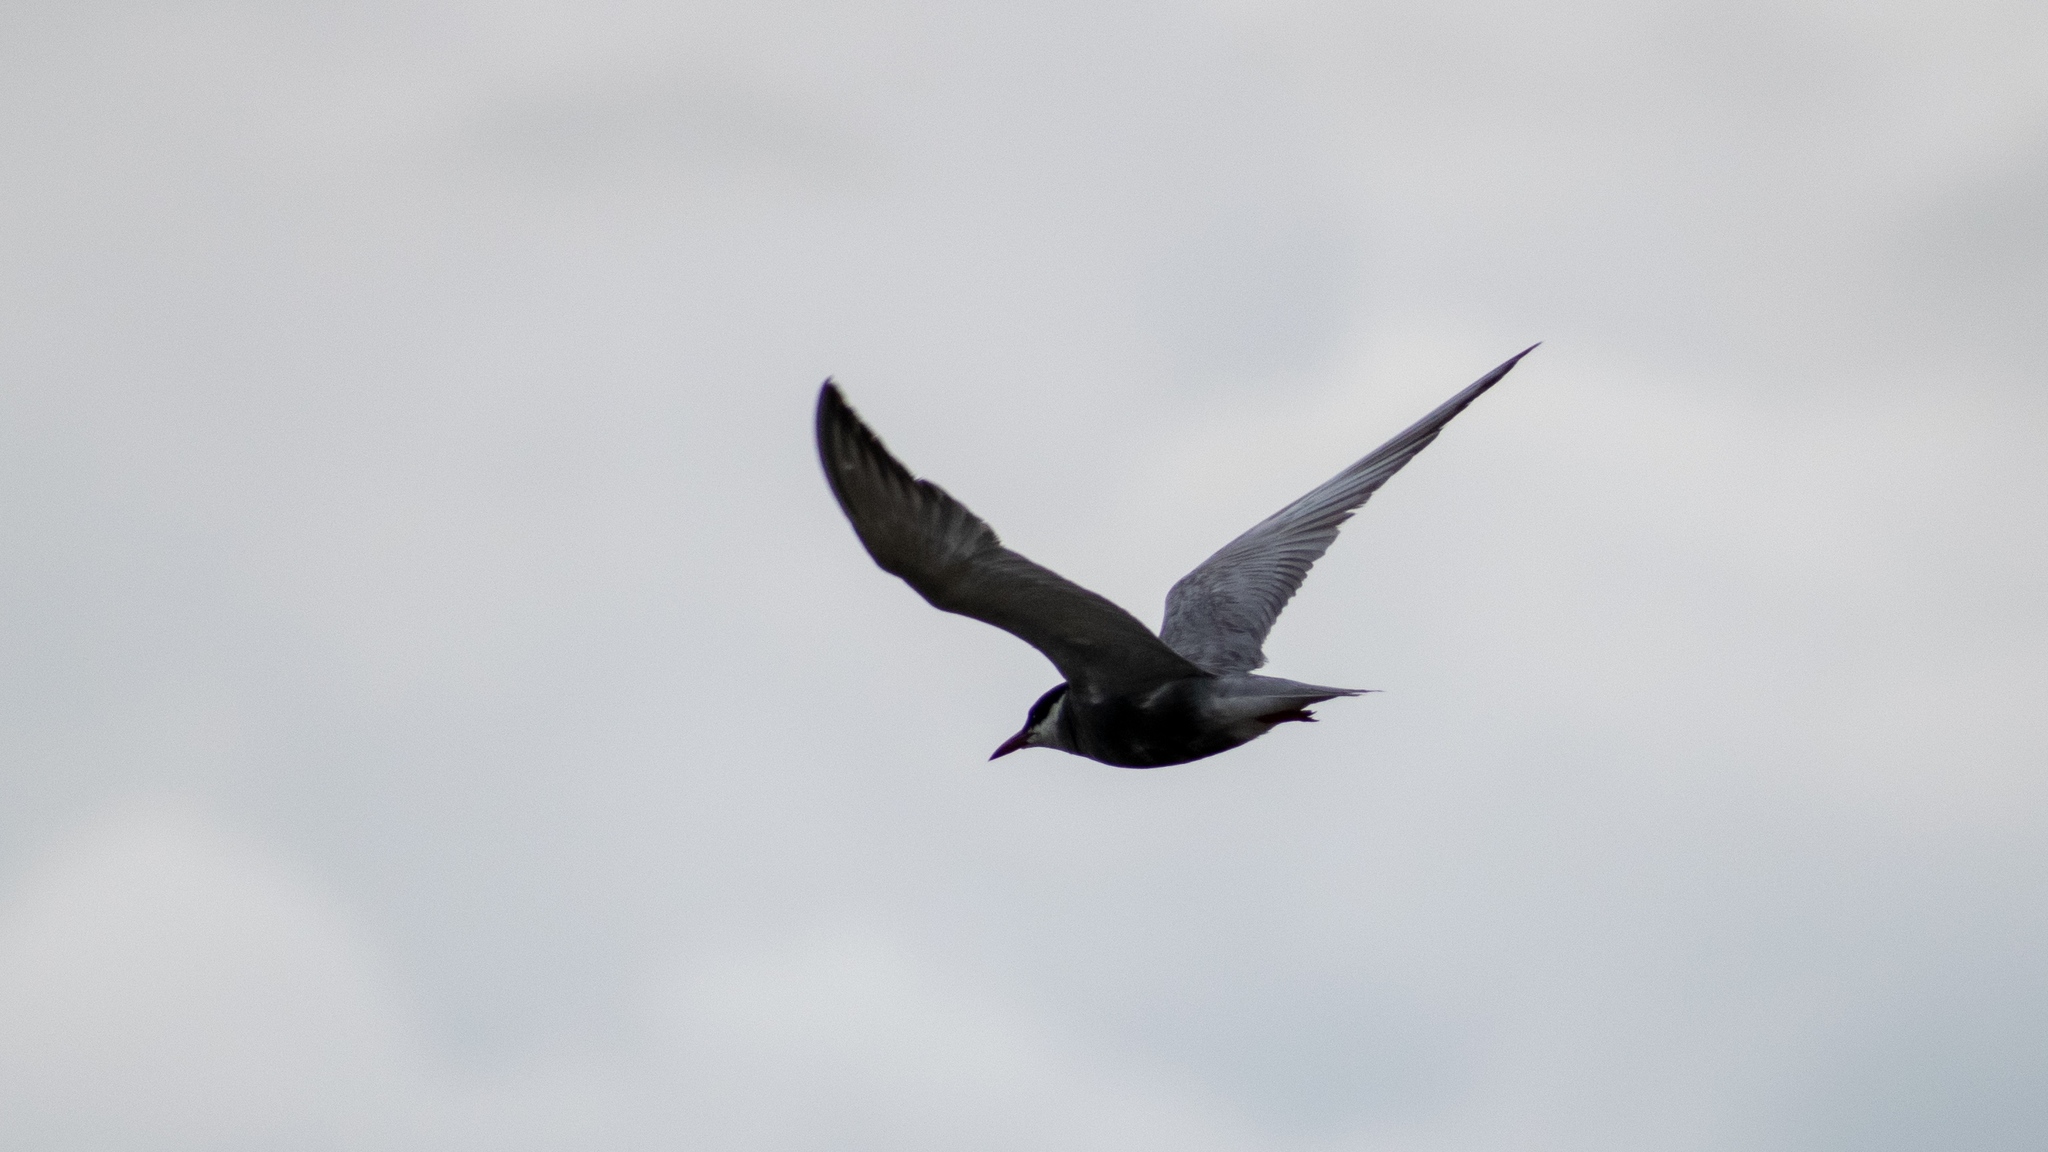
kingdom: Animalia
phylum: Chordata
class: Aves
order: Charadriiformes
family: Laridae
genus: Chlidonias
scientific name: Chlidonias hybrida
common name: Whiskered tern
